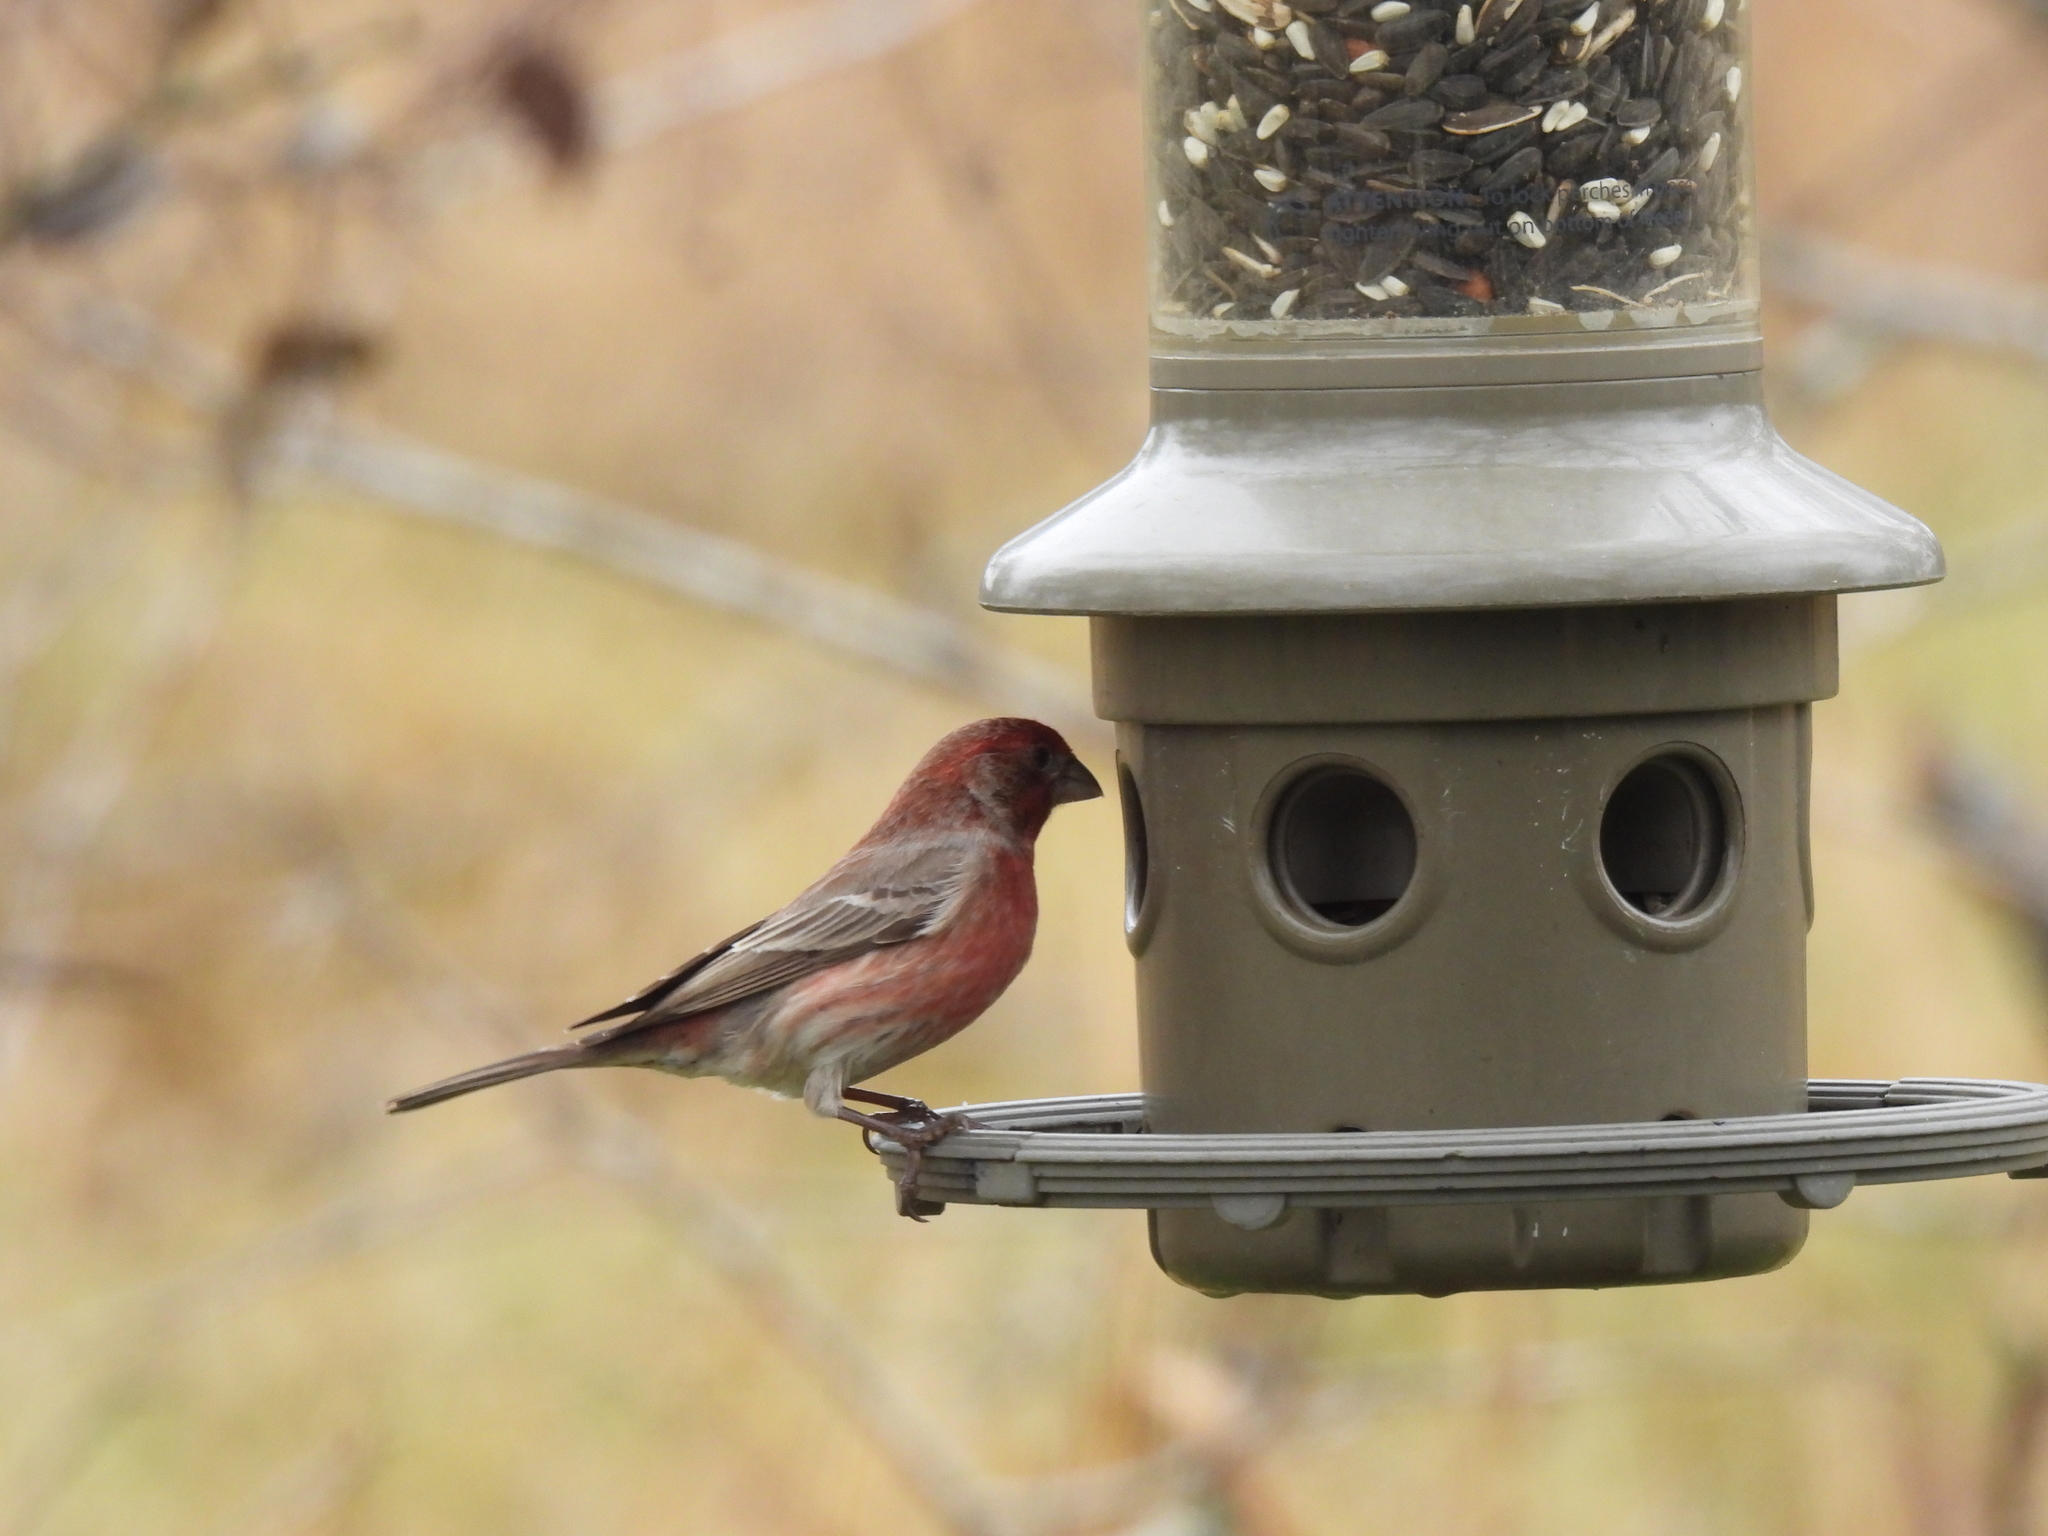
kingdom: Animalia
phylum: Chordata
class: Aves
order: Passeriformes
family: Fringillidae
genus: Haemorhous
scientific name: Haemorhous mexicanus
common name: House finch
